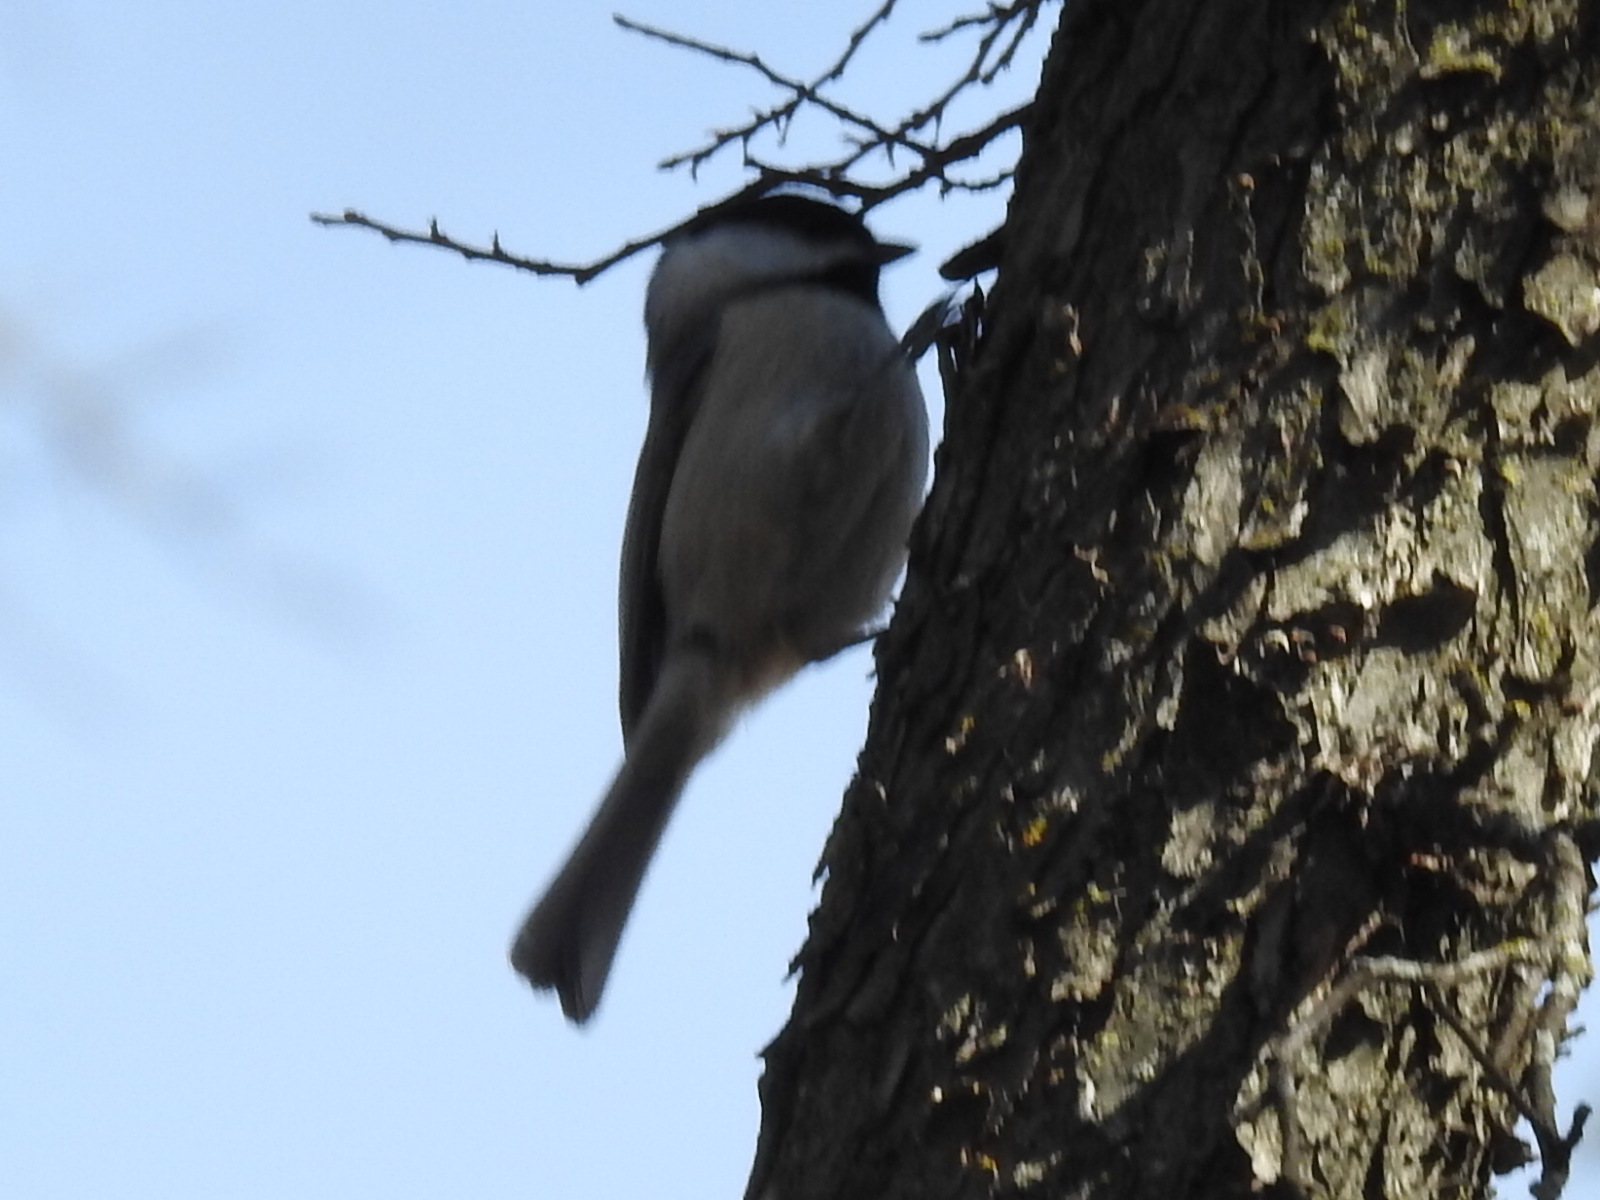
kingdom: Animalia
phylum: Chordata
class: Aves
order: Passeriformes
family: Paridae
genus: Poecile
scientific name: Poecile carolinensis
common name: Carolina chickadee
